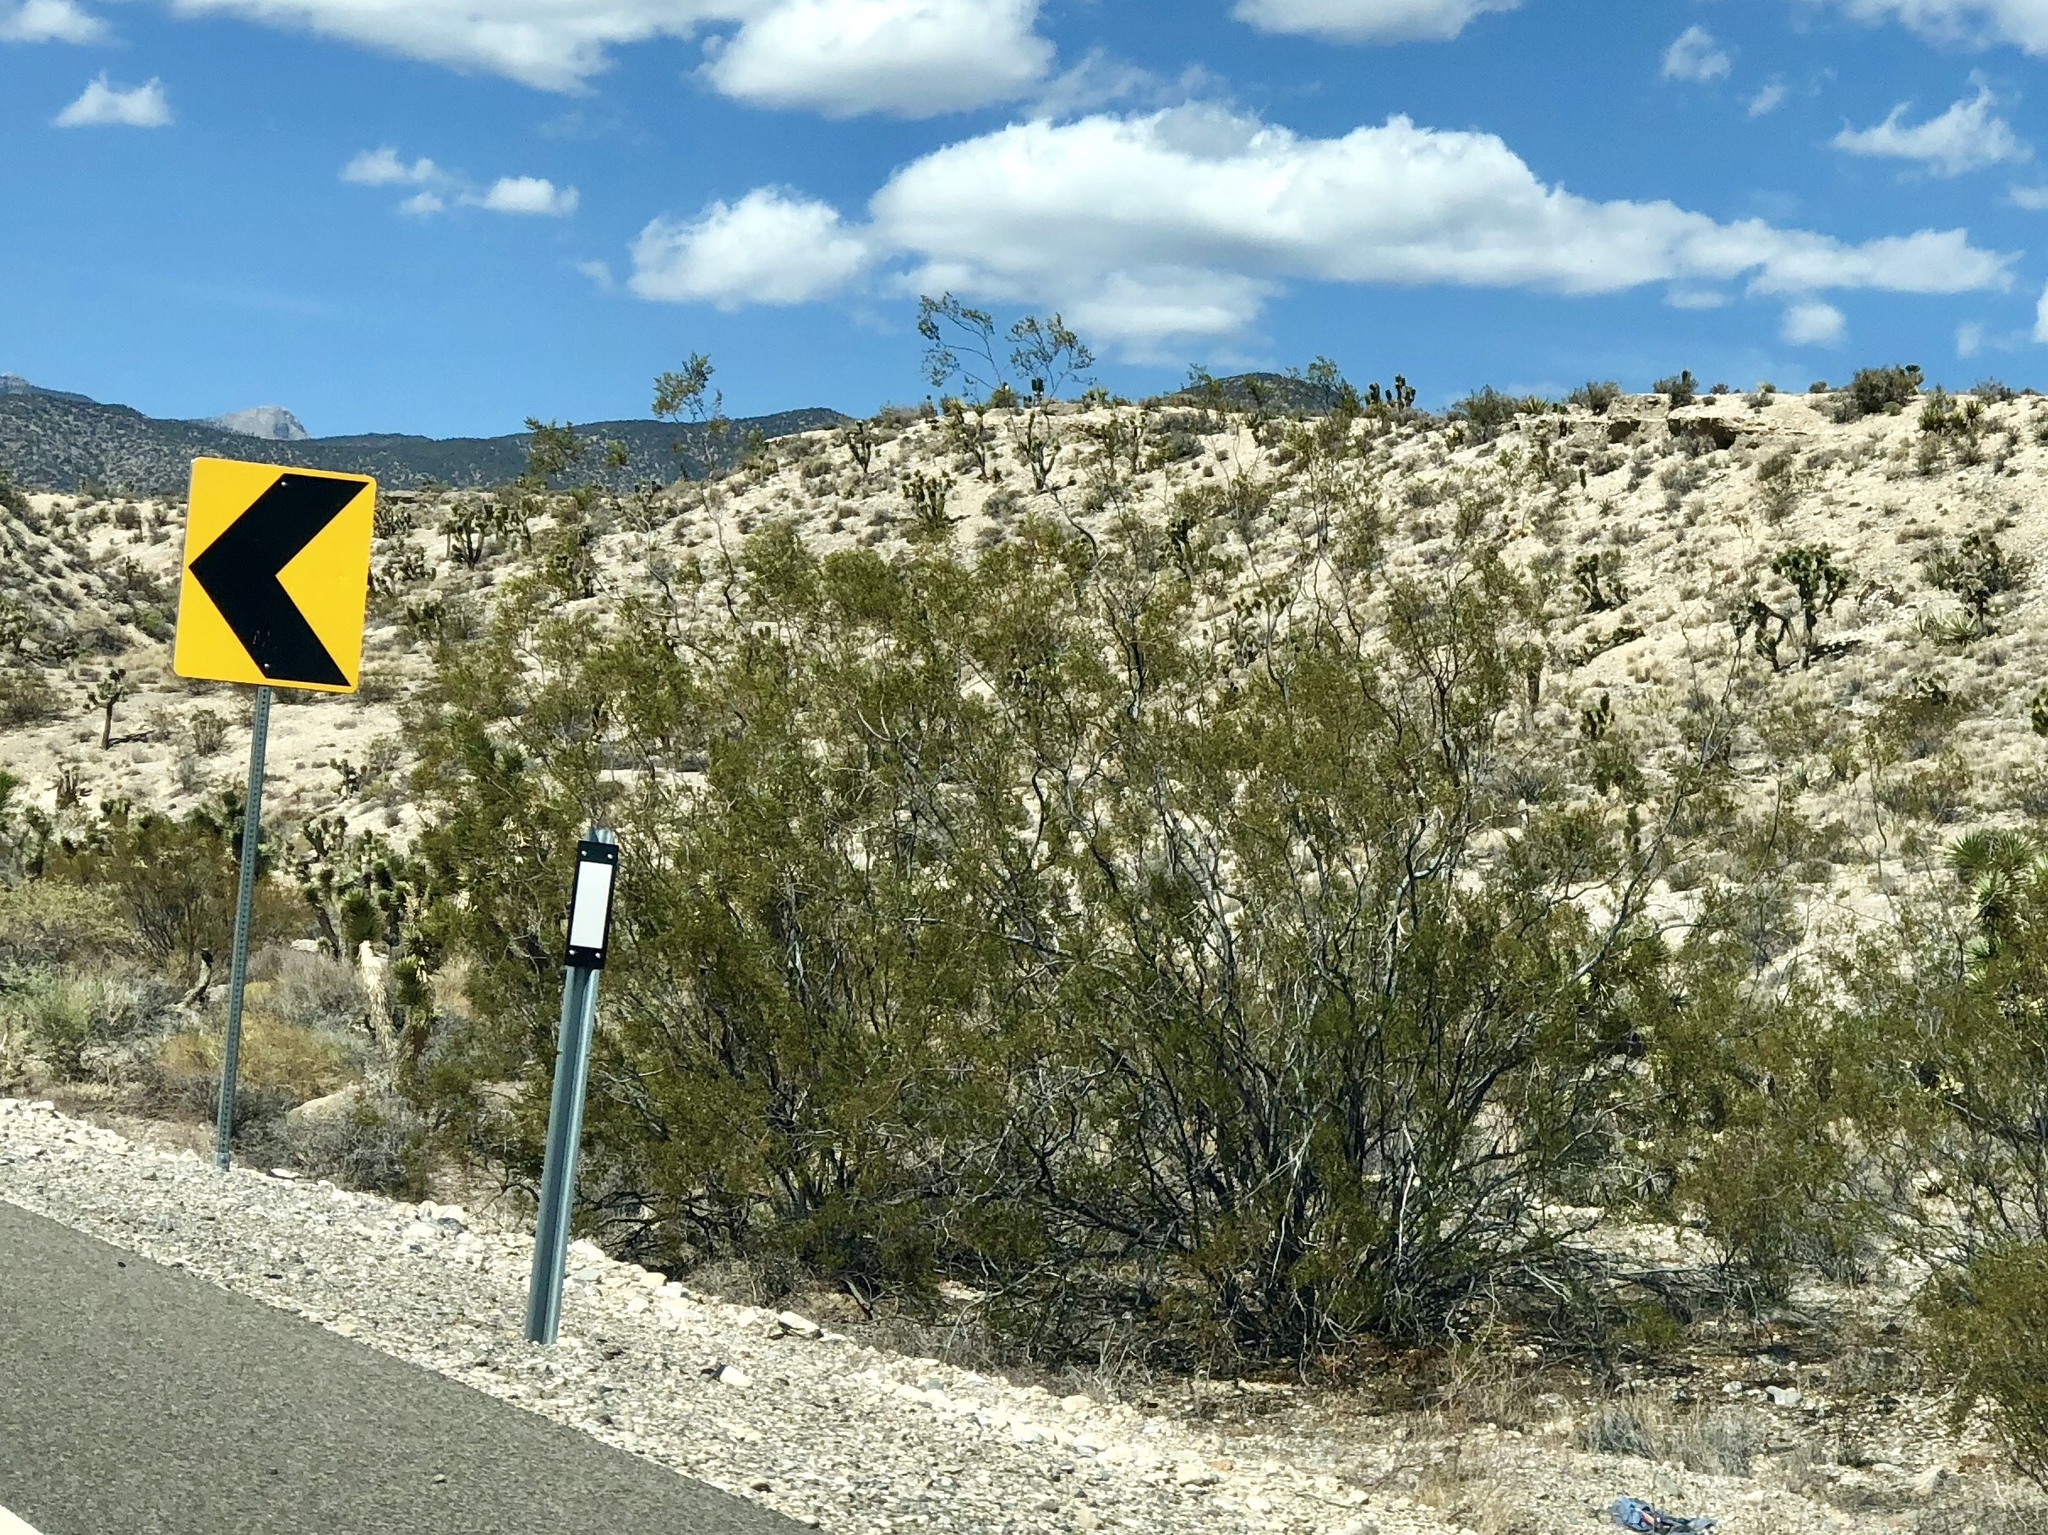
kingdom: Plantae
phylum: Tracheophyta
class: Magnoliopsida
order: Zygophyllales
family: Zygophyllaceae
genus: Larrea
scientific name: Larrea tridentata
